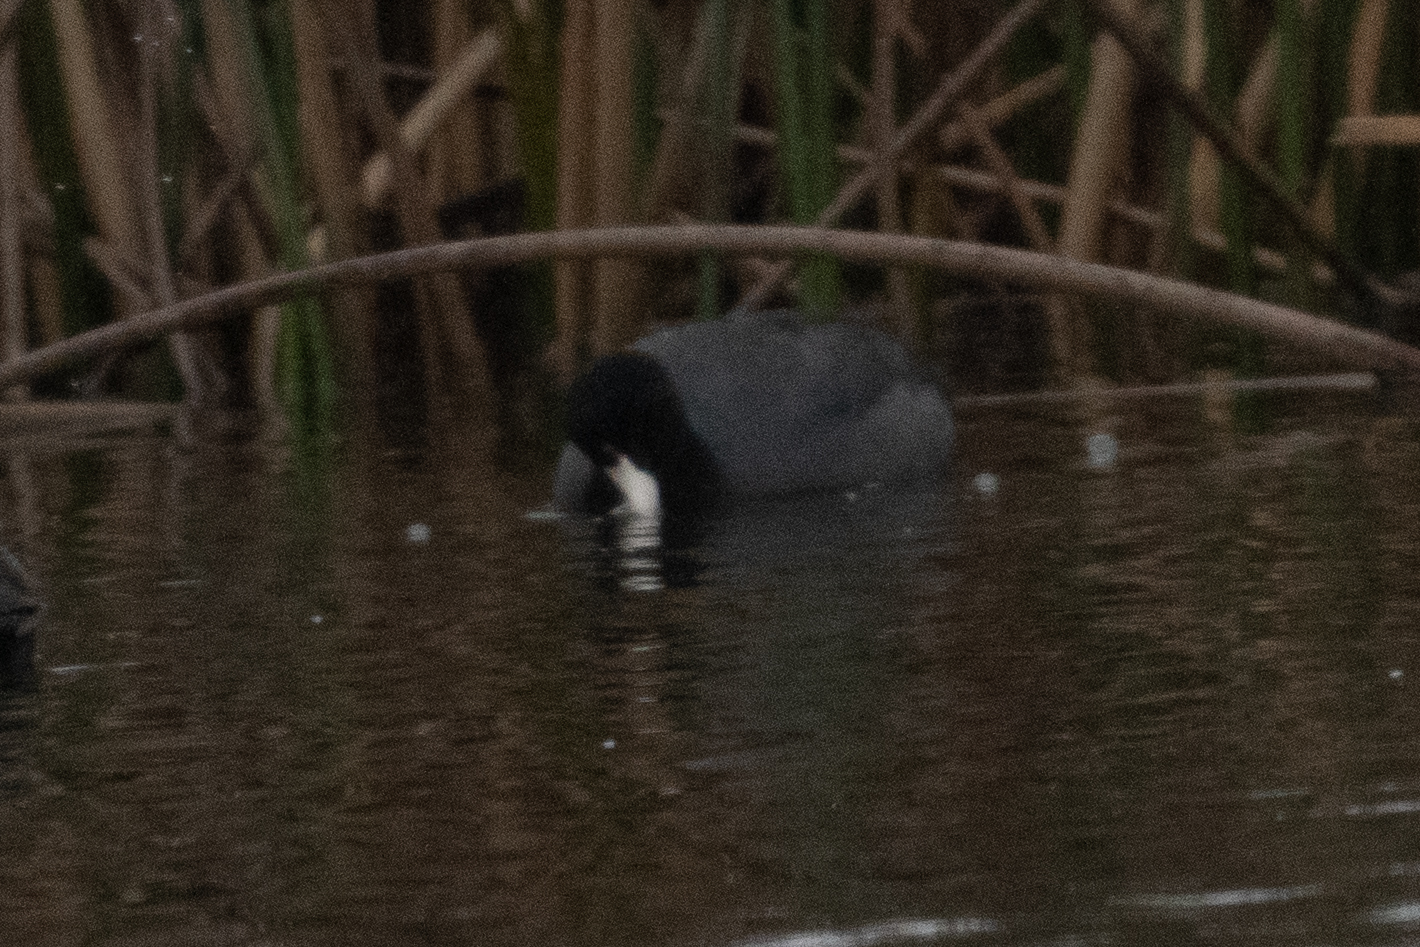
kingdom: Animalia
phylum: Chordata
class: Aves
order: Gruiformes
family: Rallidae
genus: Fulica
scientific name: Fulica americana
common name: American coot
